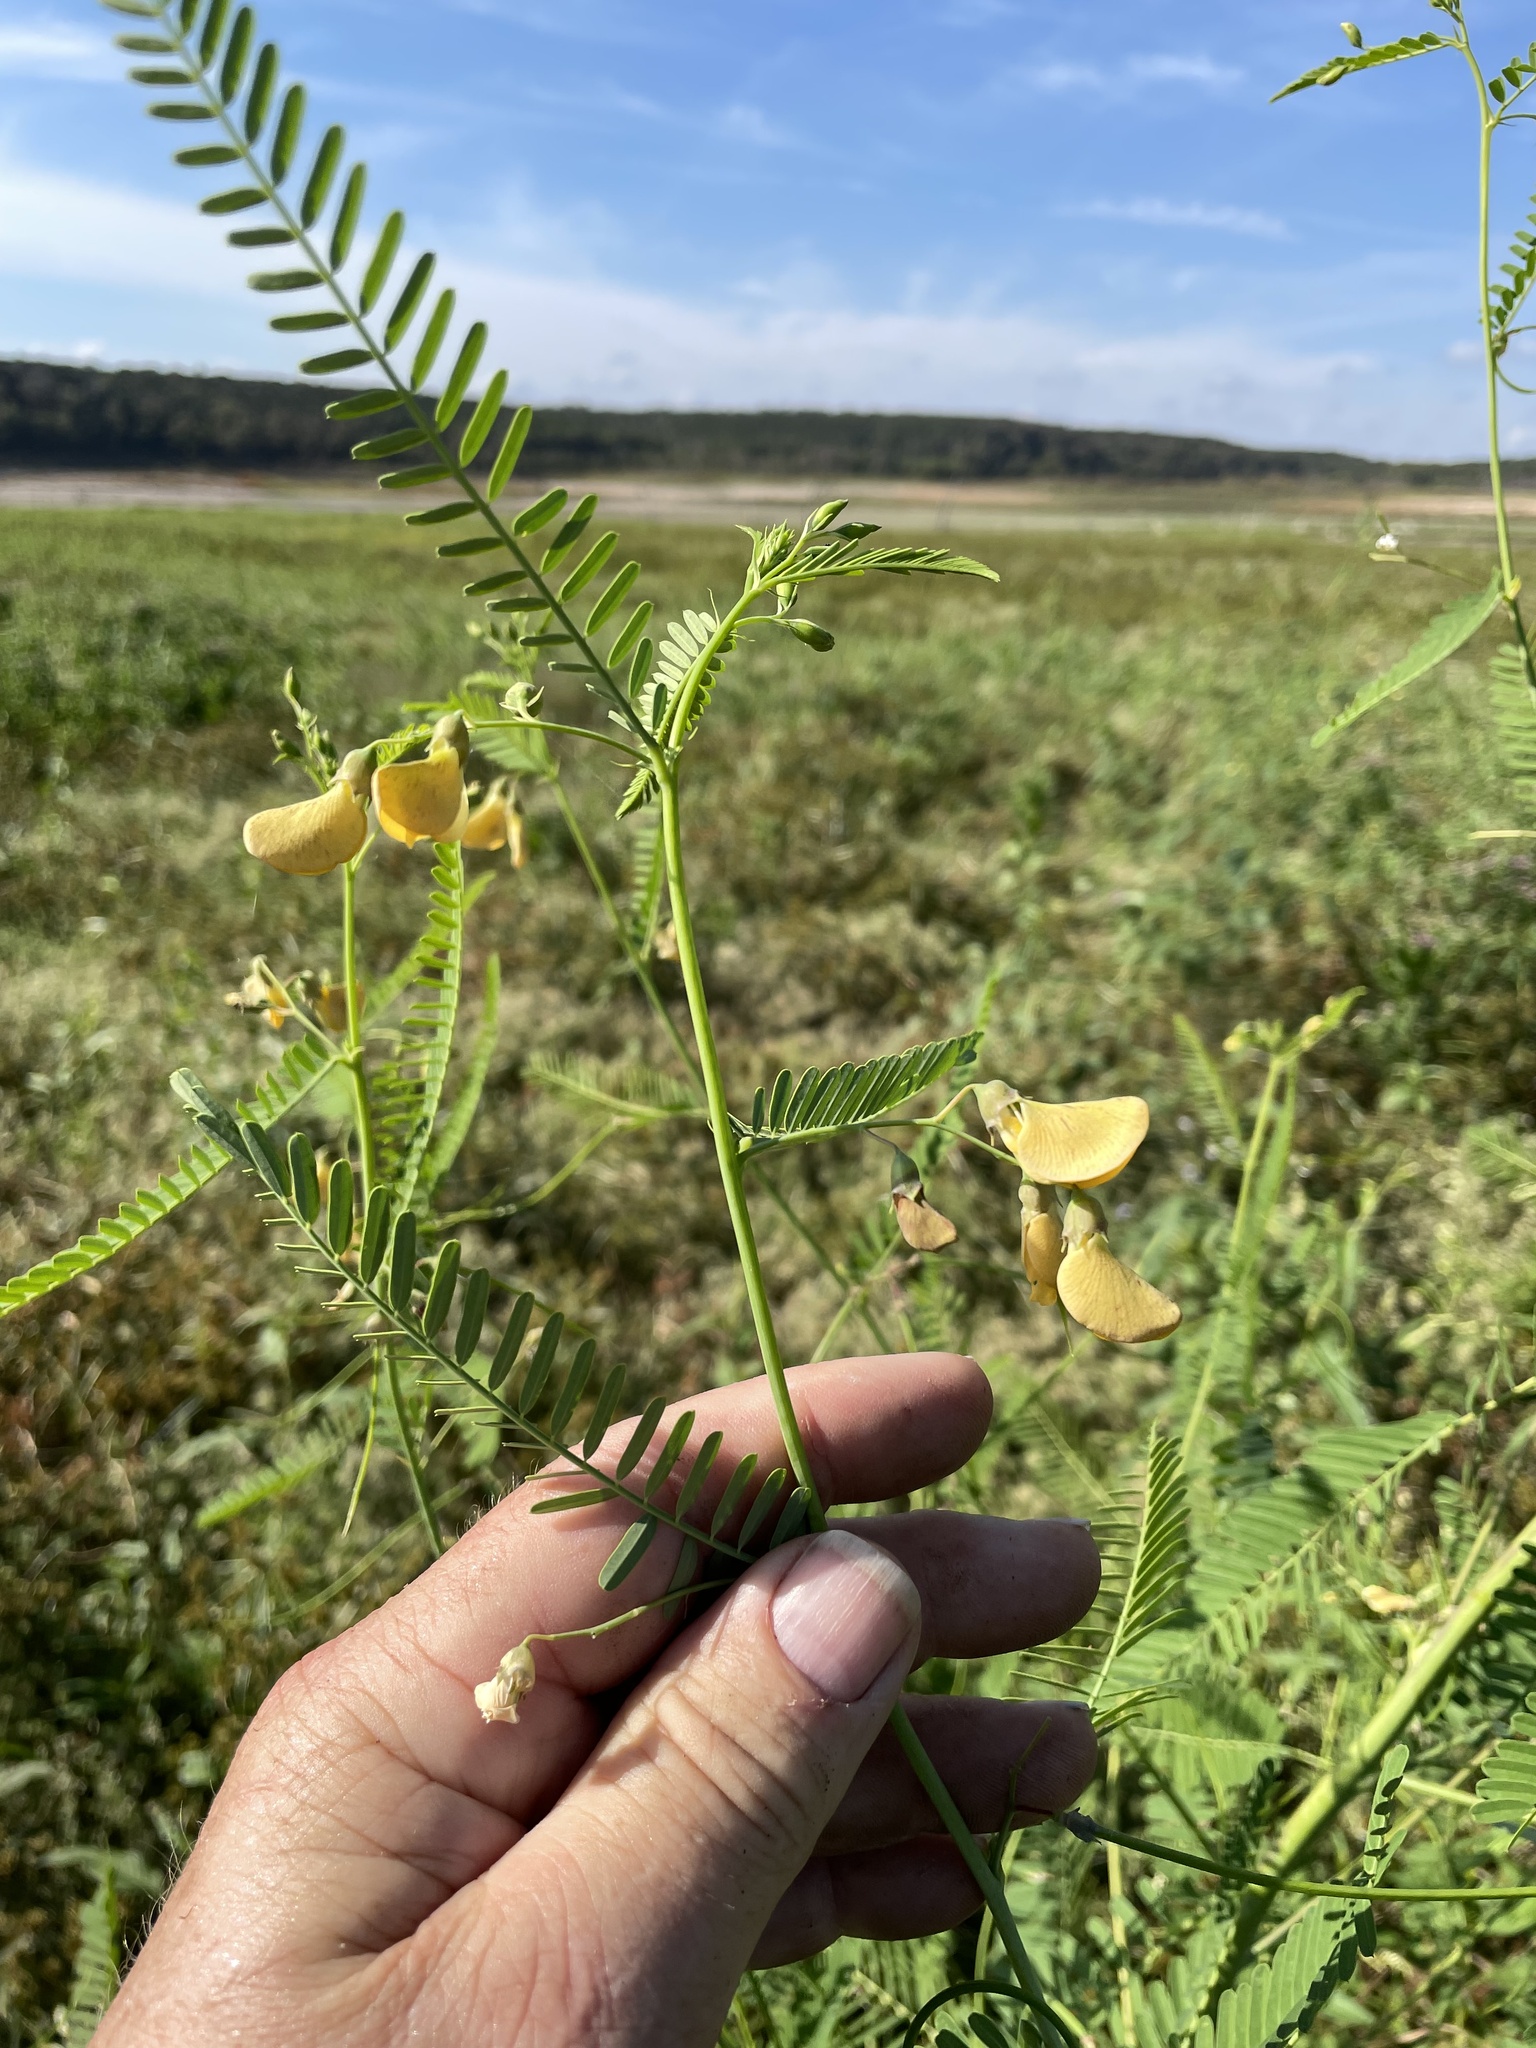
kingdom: Plantae
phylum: Tracheophyta
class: Magnoliopsida
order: Fabales
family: Fabaceae
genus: Sesbania
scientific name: Sesbania herbacea
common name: Bigpod sesbania
